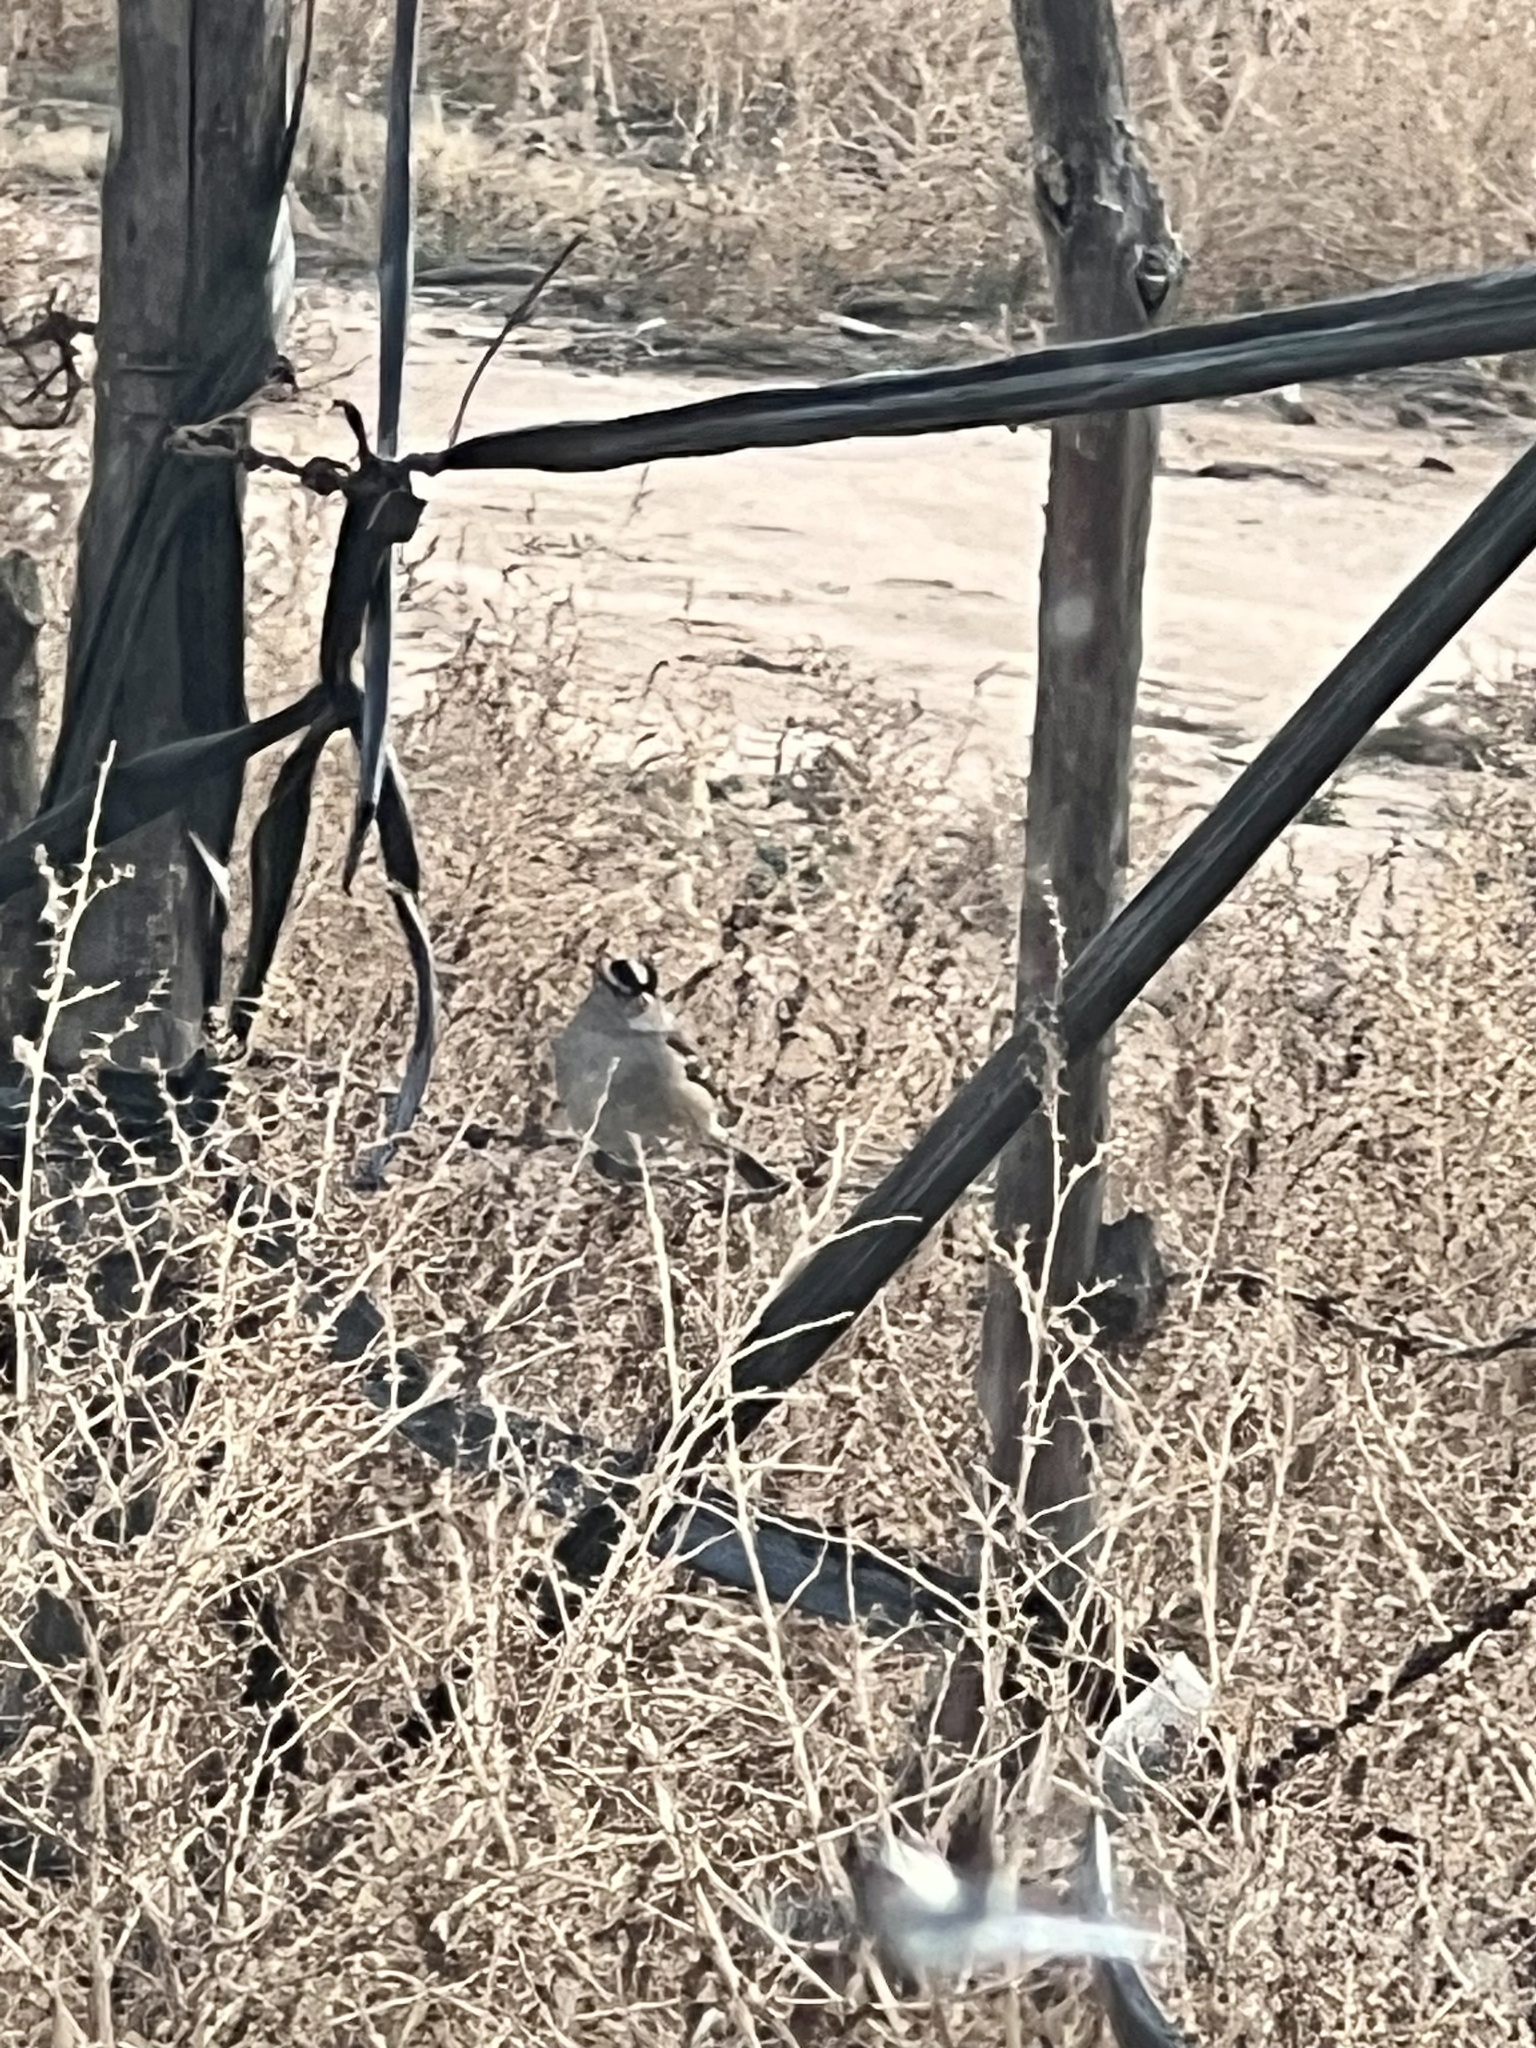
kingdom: Animalia
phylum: Chordata
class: Aves
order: Passeriformes
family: Passerellidae
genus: Zonotrichia
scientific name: Zonotrichia leucophrys
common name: White-crowned sparrow
